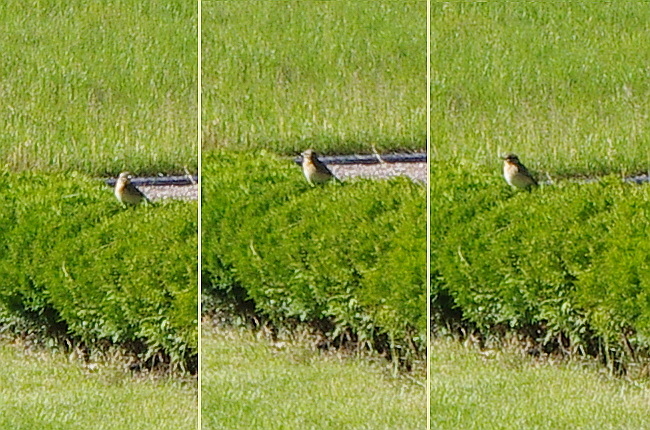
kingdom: Animalia
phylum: Chordata
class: Aves
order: Passeriformes
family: Muscicapidae
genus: Saxicola
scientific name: Saxicola rubetra
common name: Whinchat
